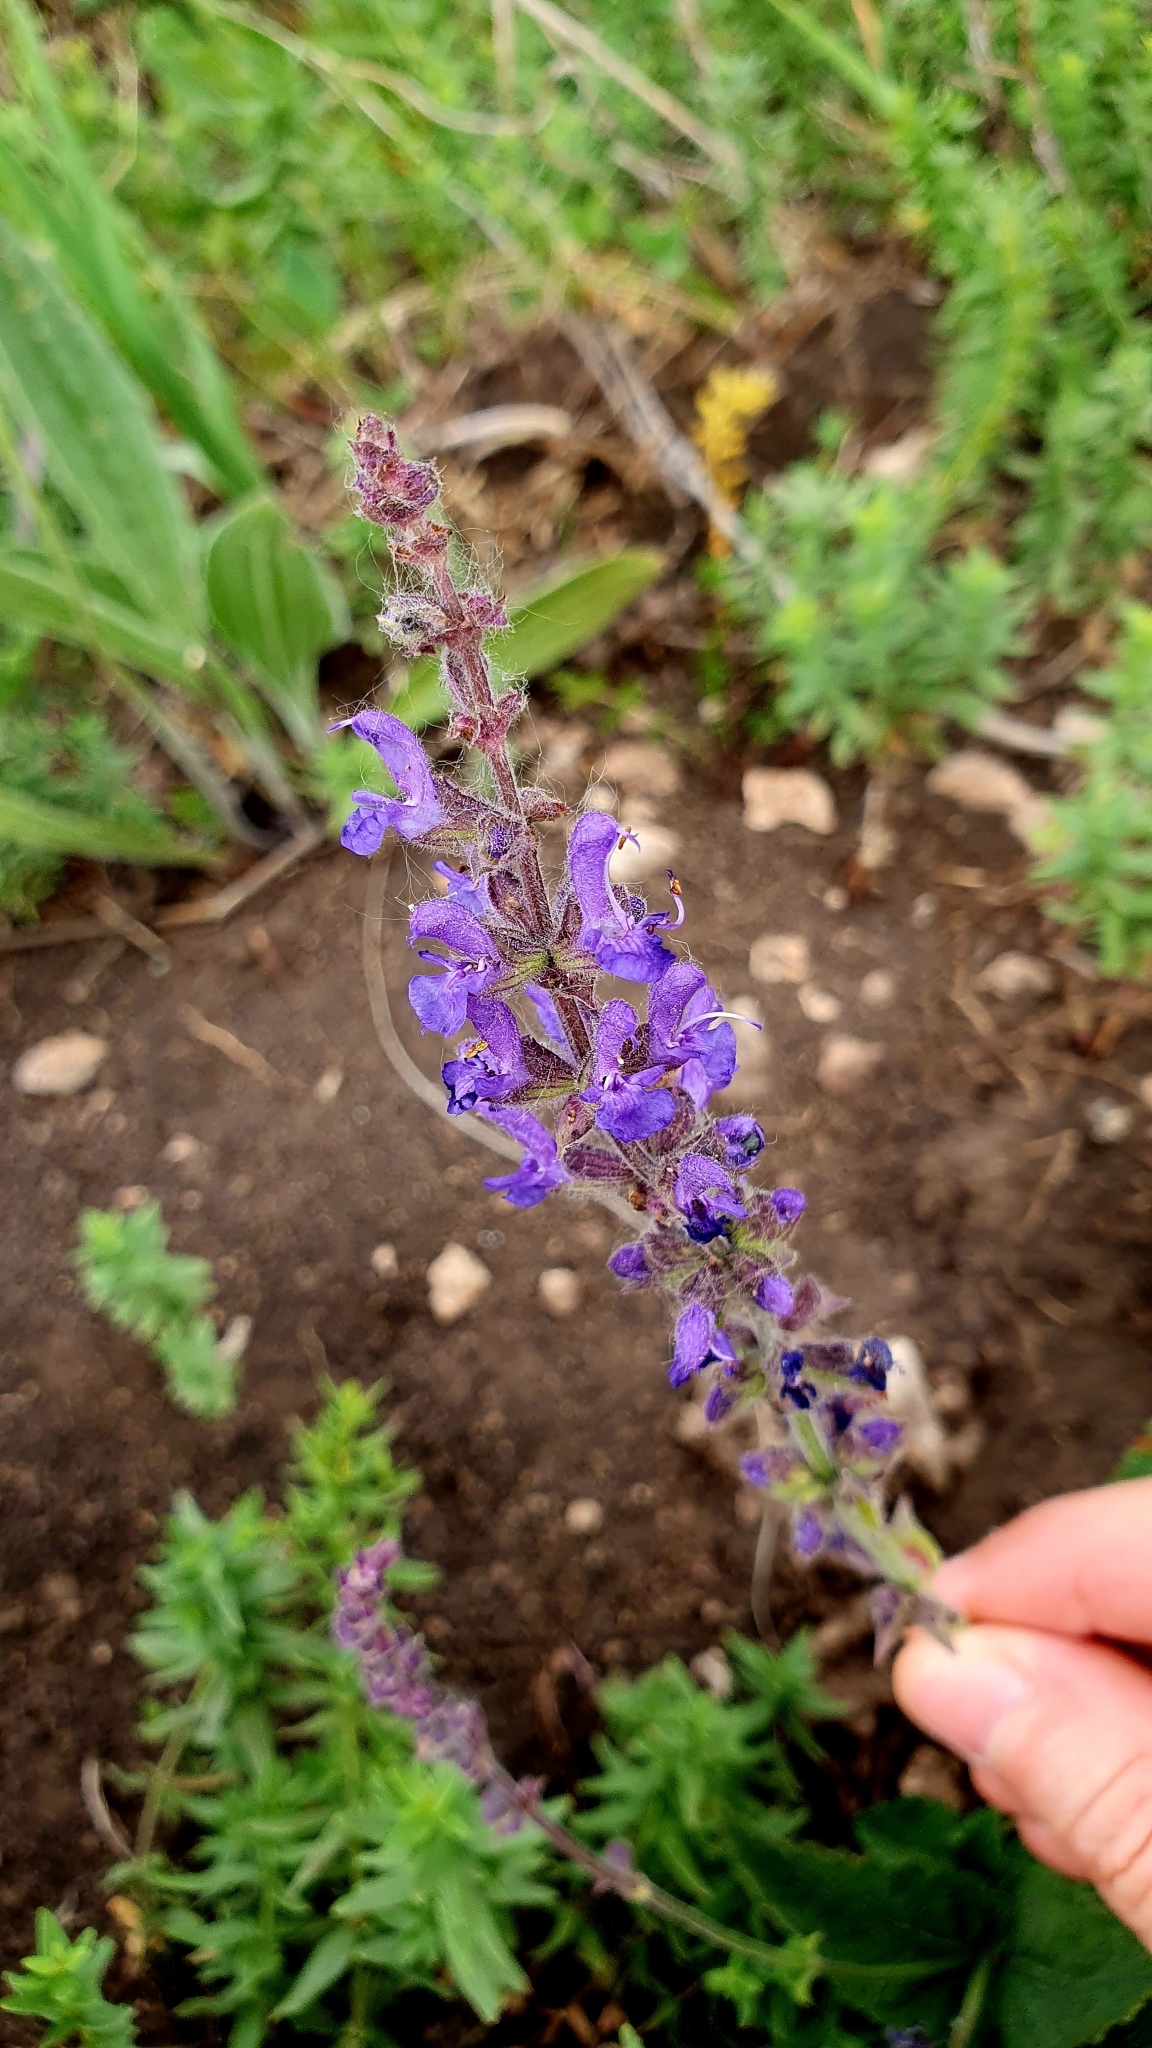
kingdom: Plantae
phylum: Tracheophyta
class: Magnoliopsida
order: Lamiales
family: Lamiaceae
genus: Salvia
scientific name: Salvia dumetorum
